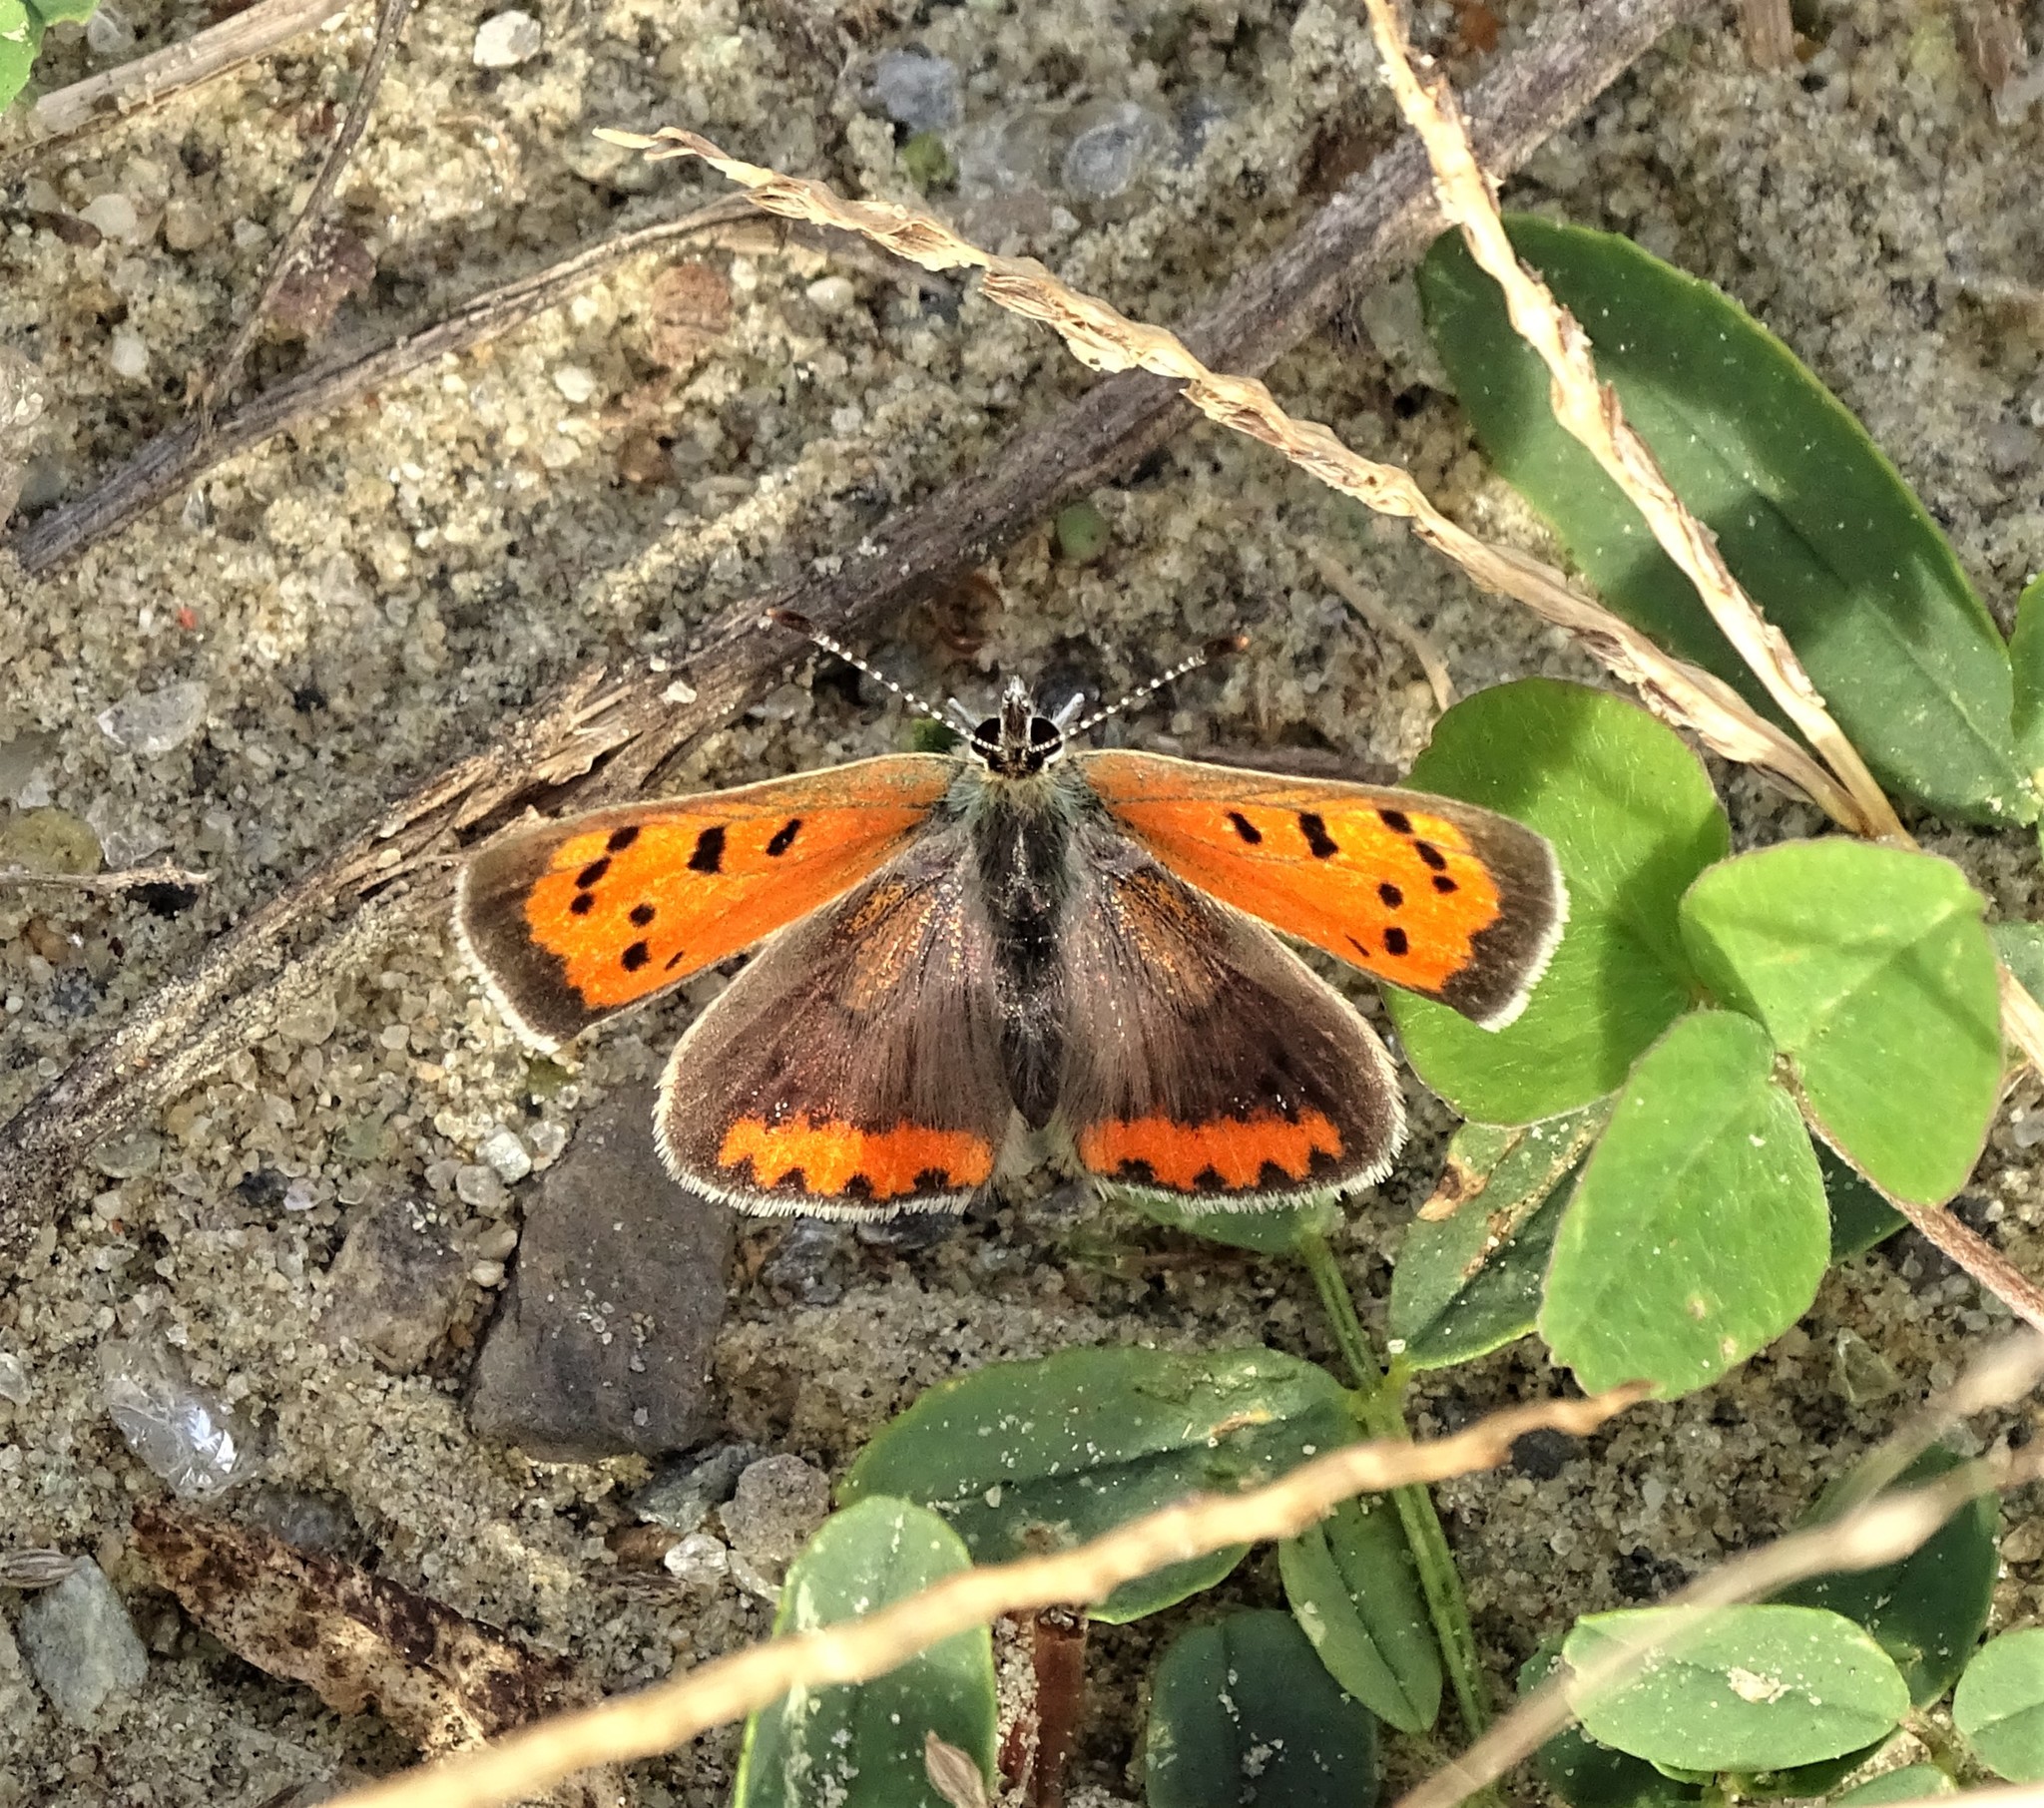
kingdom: Animalia
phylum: Arthropoda
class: Insecta
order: Lepidoptera
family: Lycaenidae
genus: Lycaena
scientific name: Lycaena hypophlaeas
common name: American copper
